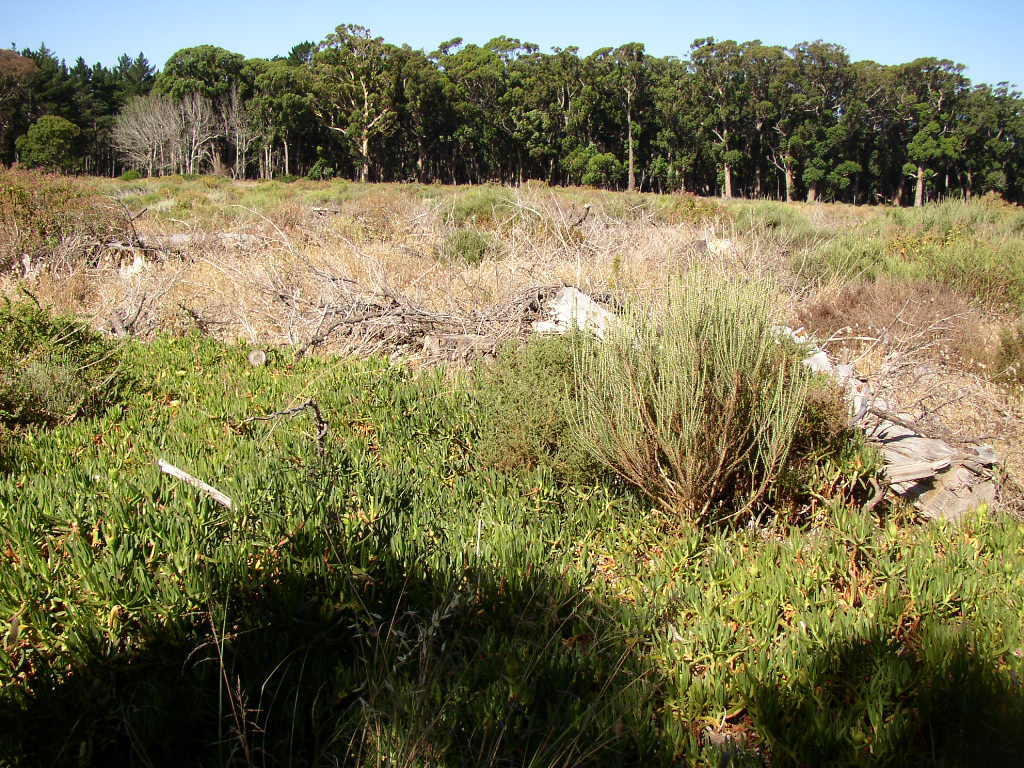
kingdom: Plantae
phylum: Tracheophyta
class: Magnoliopsida
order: Caryophyllales
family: Aizoaceae
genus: Carpobrotus
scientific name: Carpobrotus edulis
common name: Hottentot-fig
